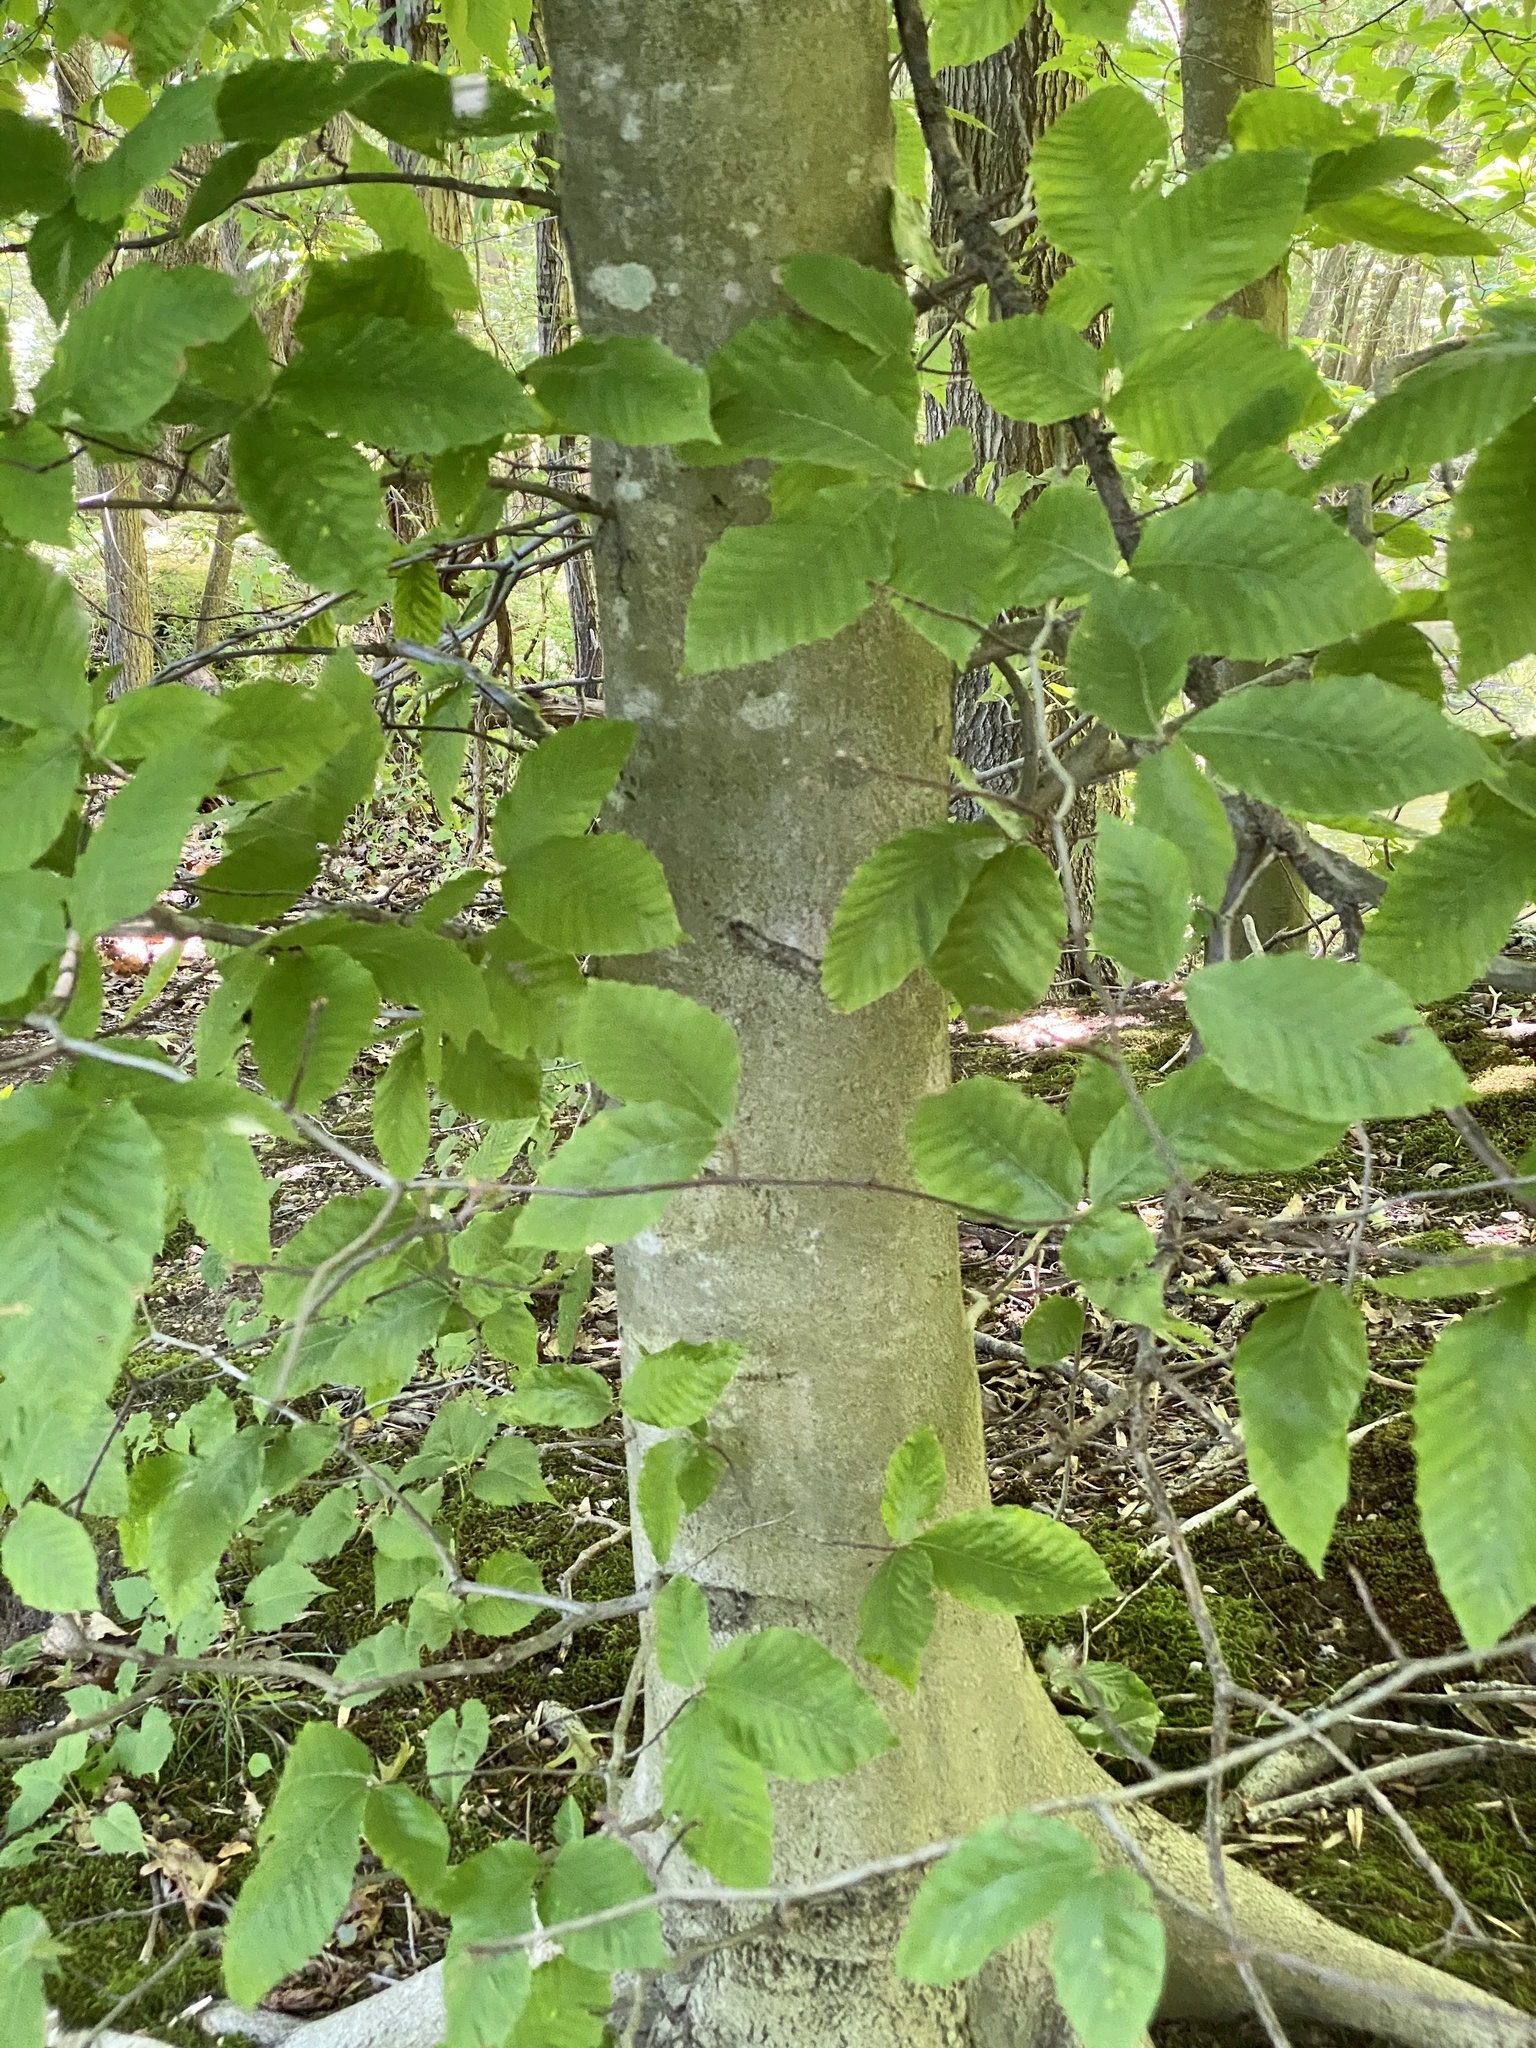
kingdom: Plantae
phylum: Tracheophyta
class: Magnoliopsida
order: Fagales
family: Fagaceae
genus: Fagus
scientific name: Fagus grandifolia
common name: American beech
